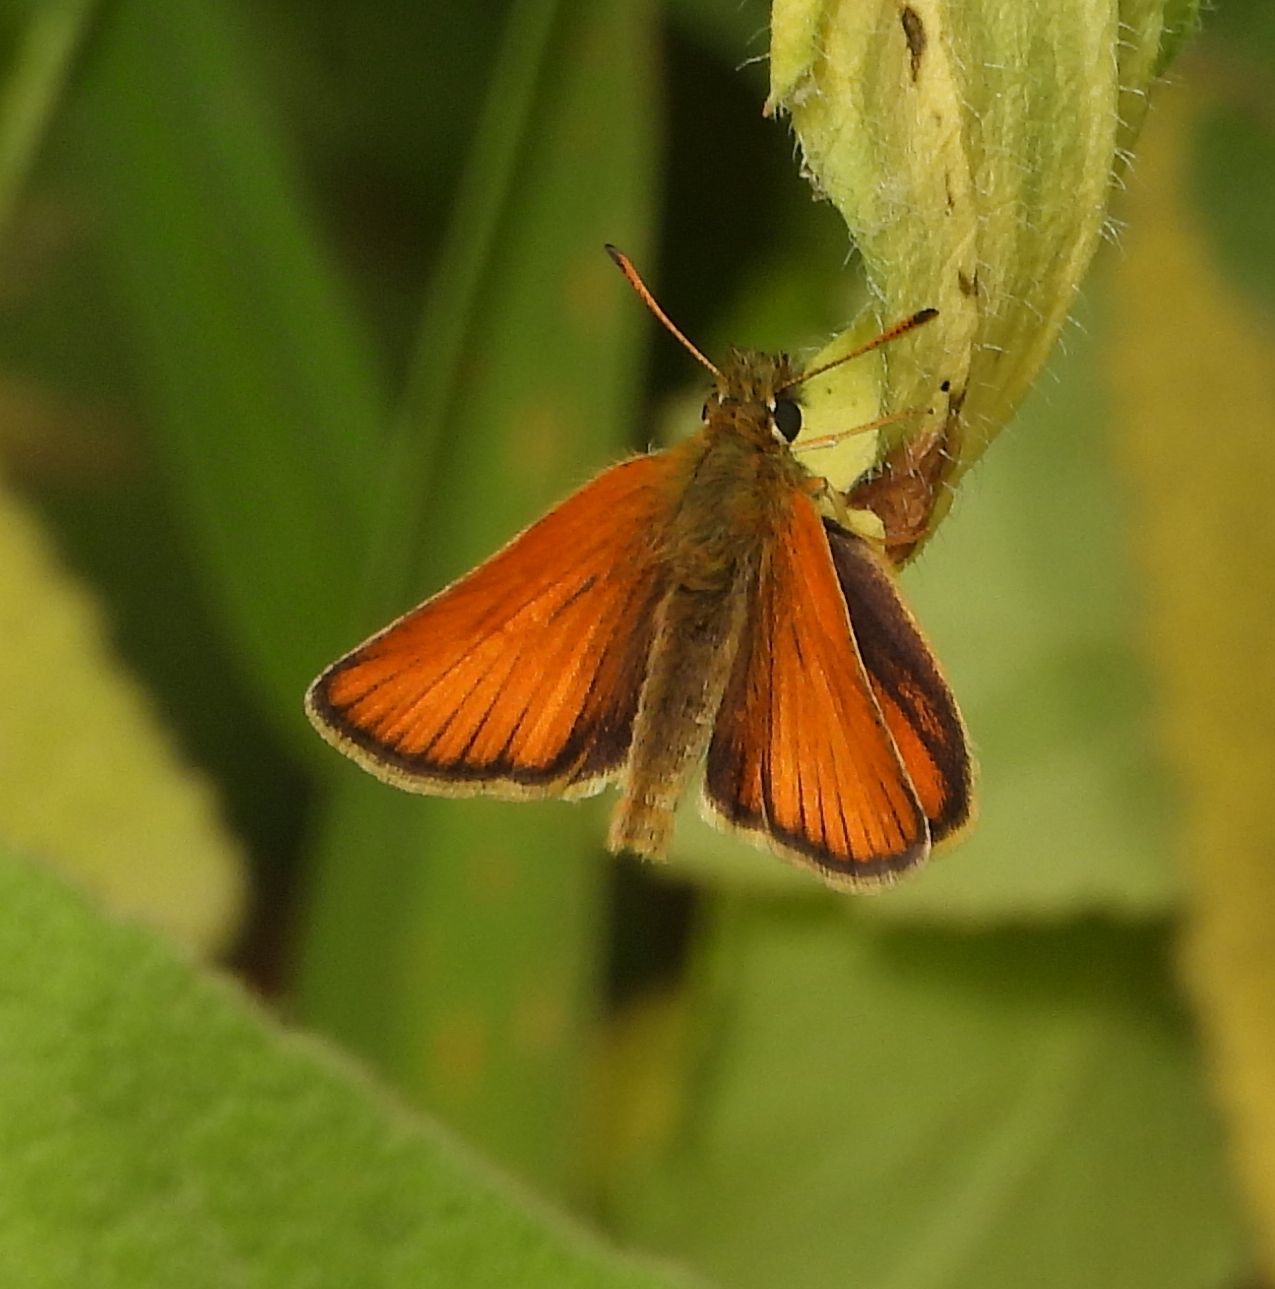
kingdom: Animalia
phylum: Arthropoda
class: Insecta
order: Lepidoptera
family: Hesperiidae
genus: Thymelicus
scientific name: Thymelicus lineola
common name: Essex skipper
